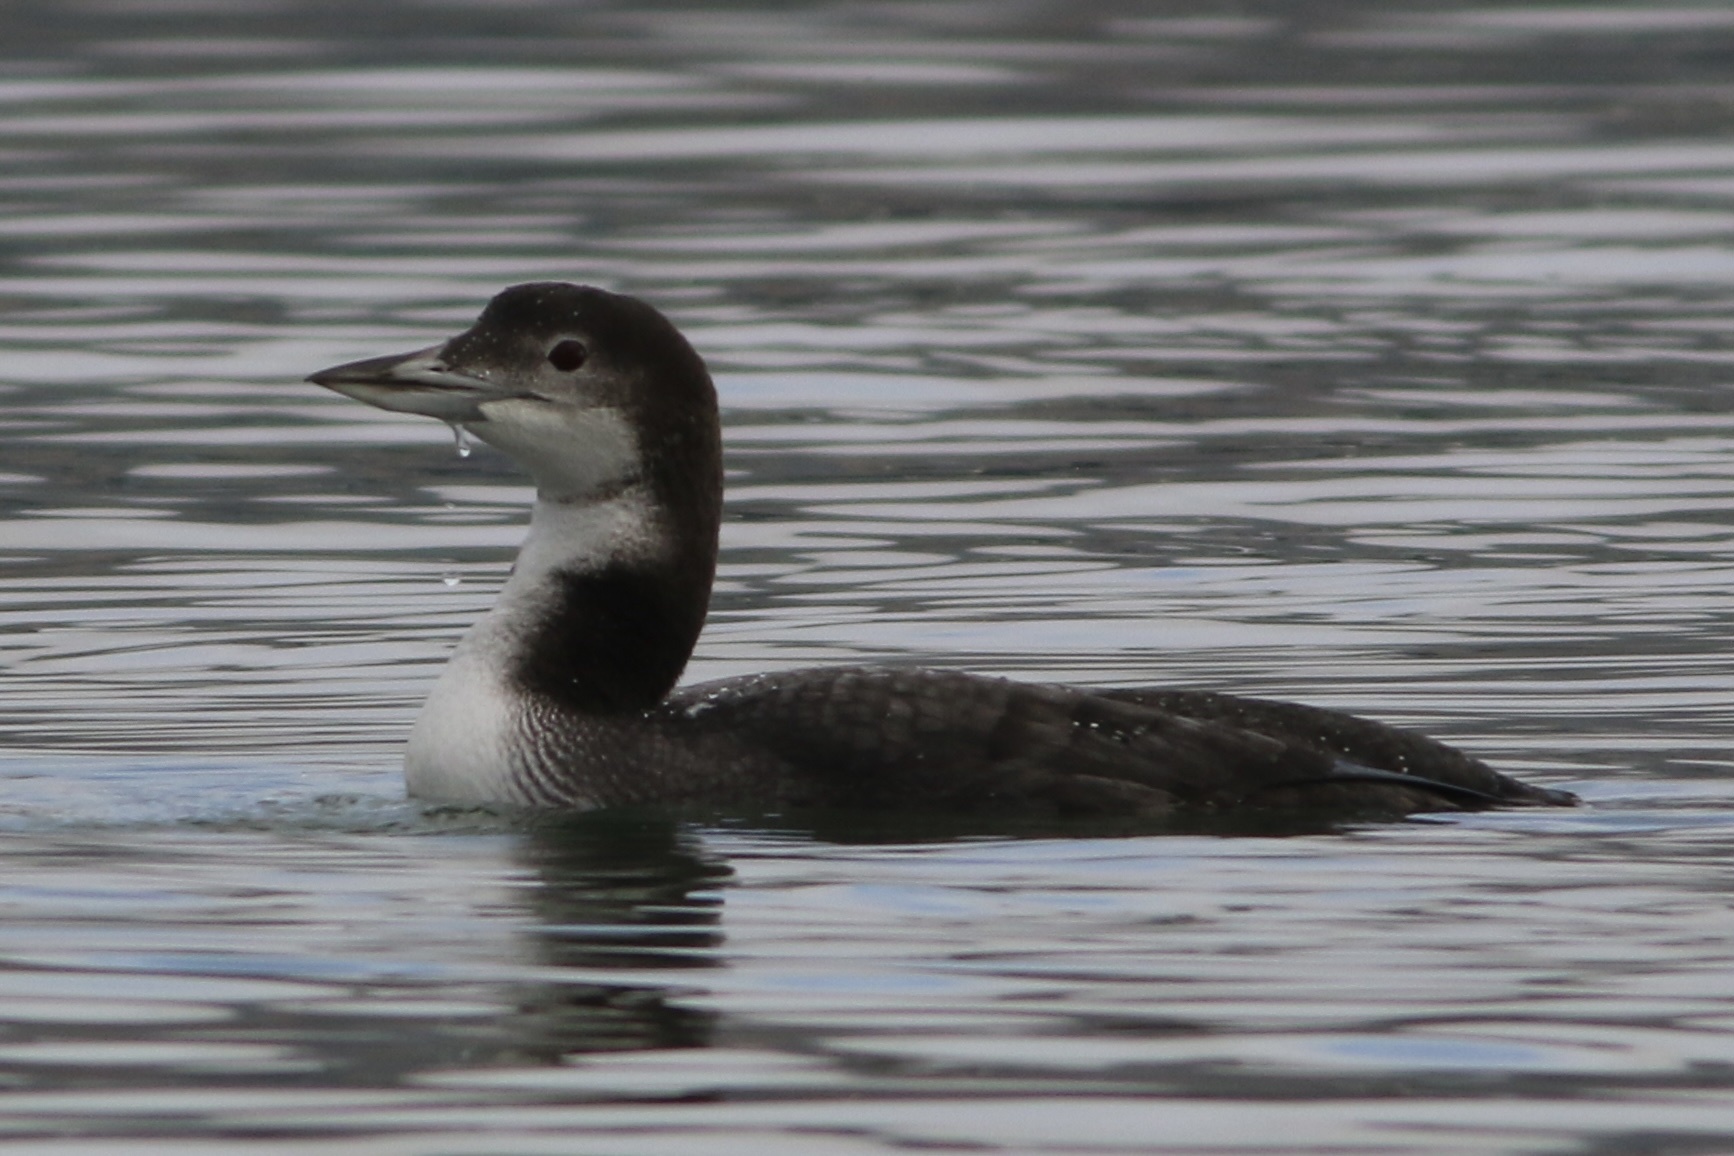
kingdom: Animalia
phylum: Chordata
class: Aves
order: Gaviiformes
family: Gaviidae
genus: Gavia
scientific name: Gavia immer
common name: Common loon
